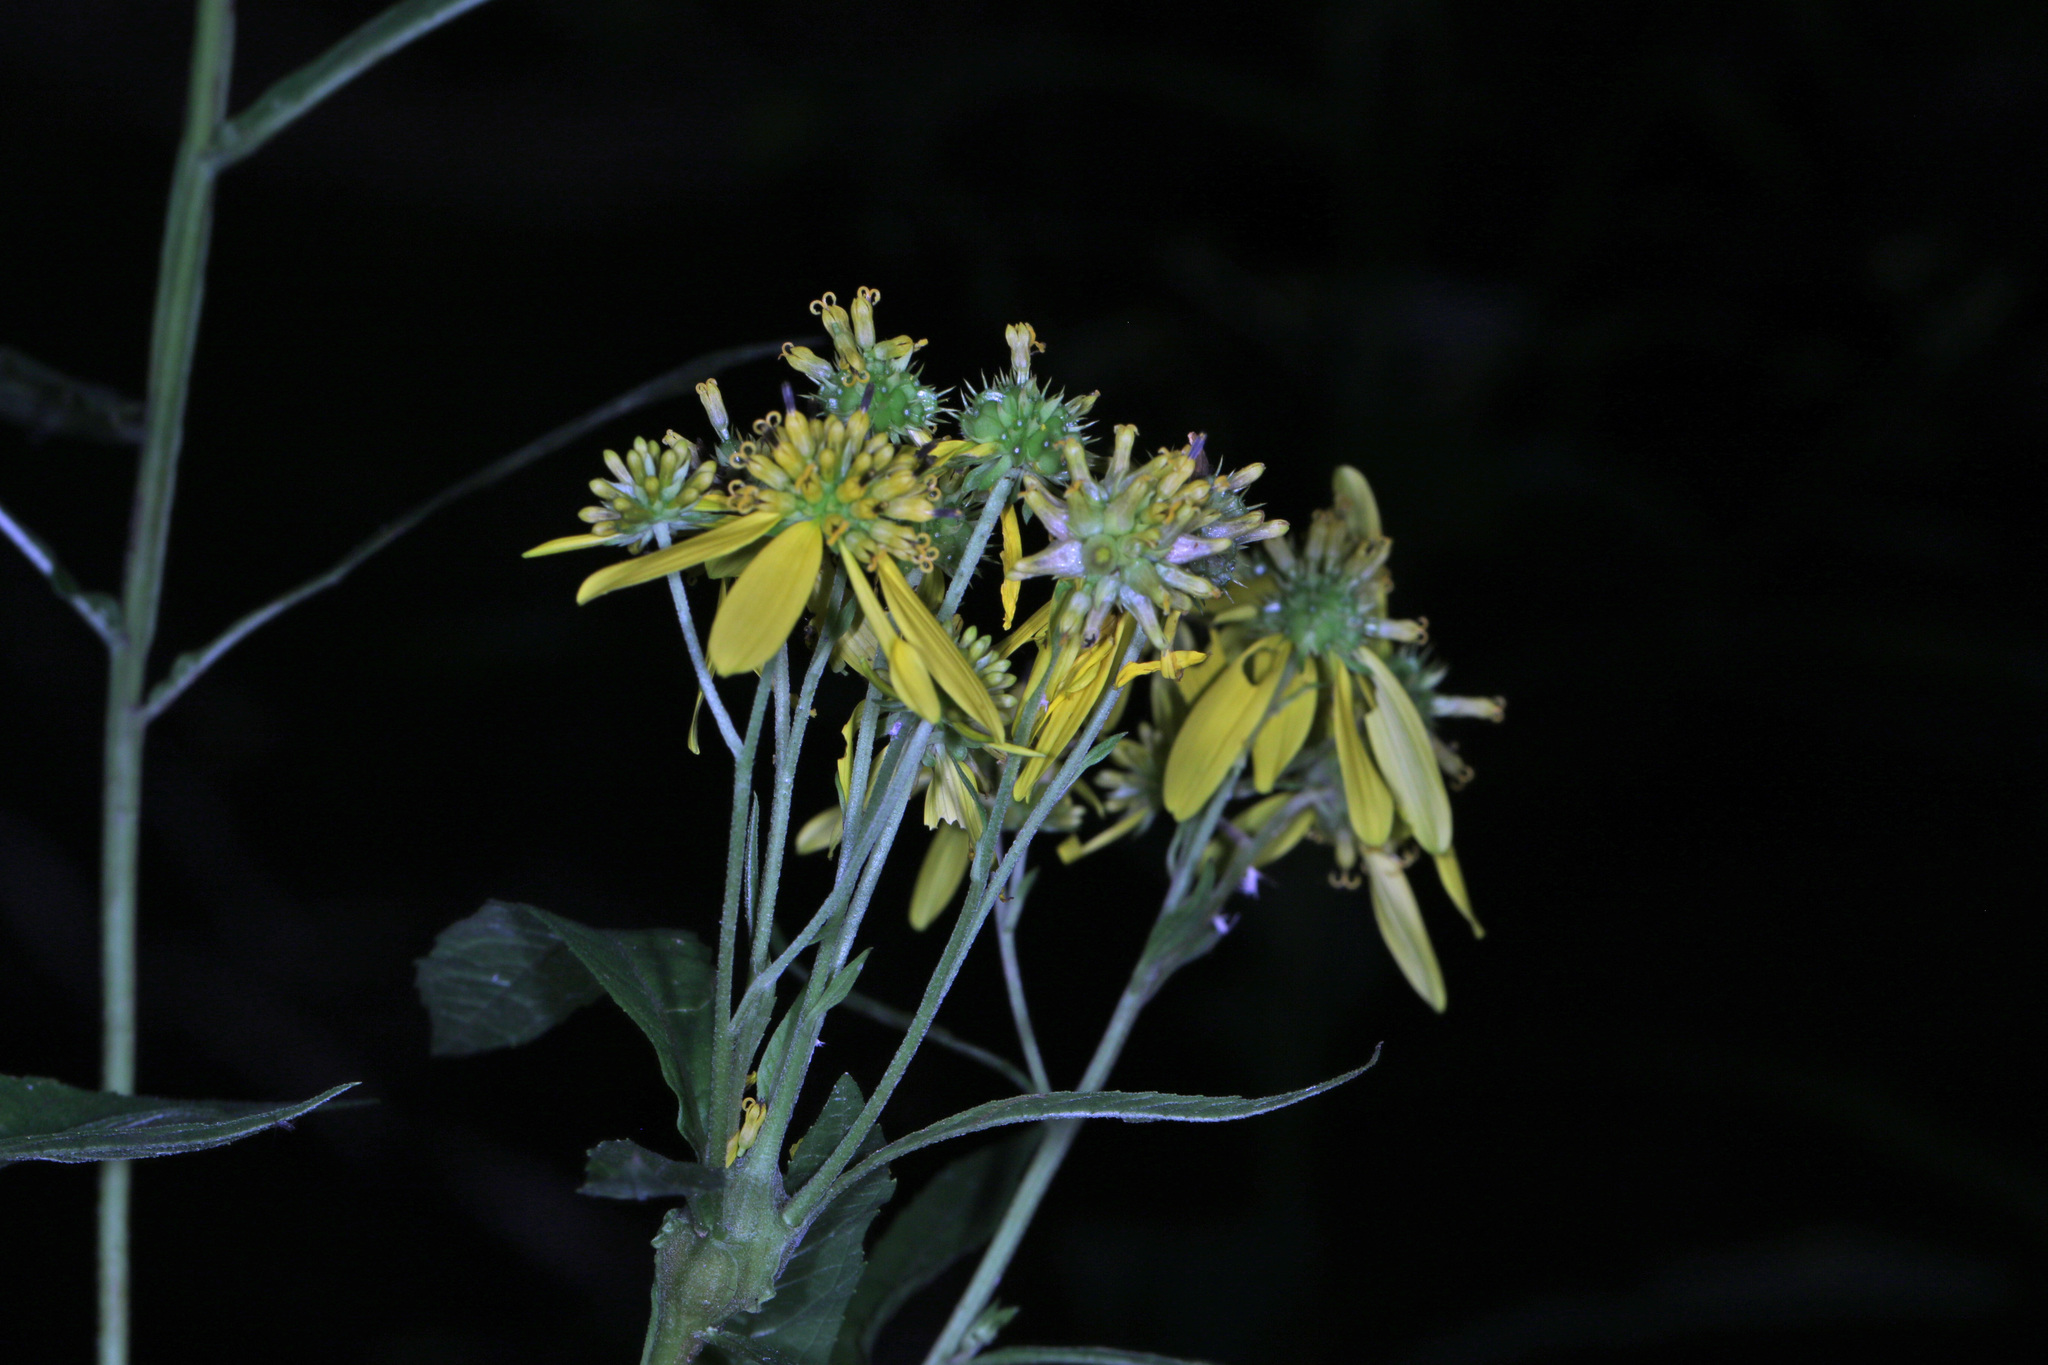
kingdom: Plantae
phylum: Tracheophyta
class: Magnoliopsida
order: Asterales
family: Asteraceae
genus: Verbesina
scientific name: Verbesina alternifolia
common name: Wingstem
